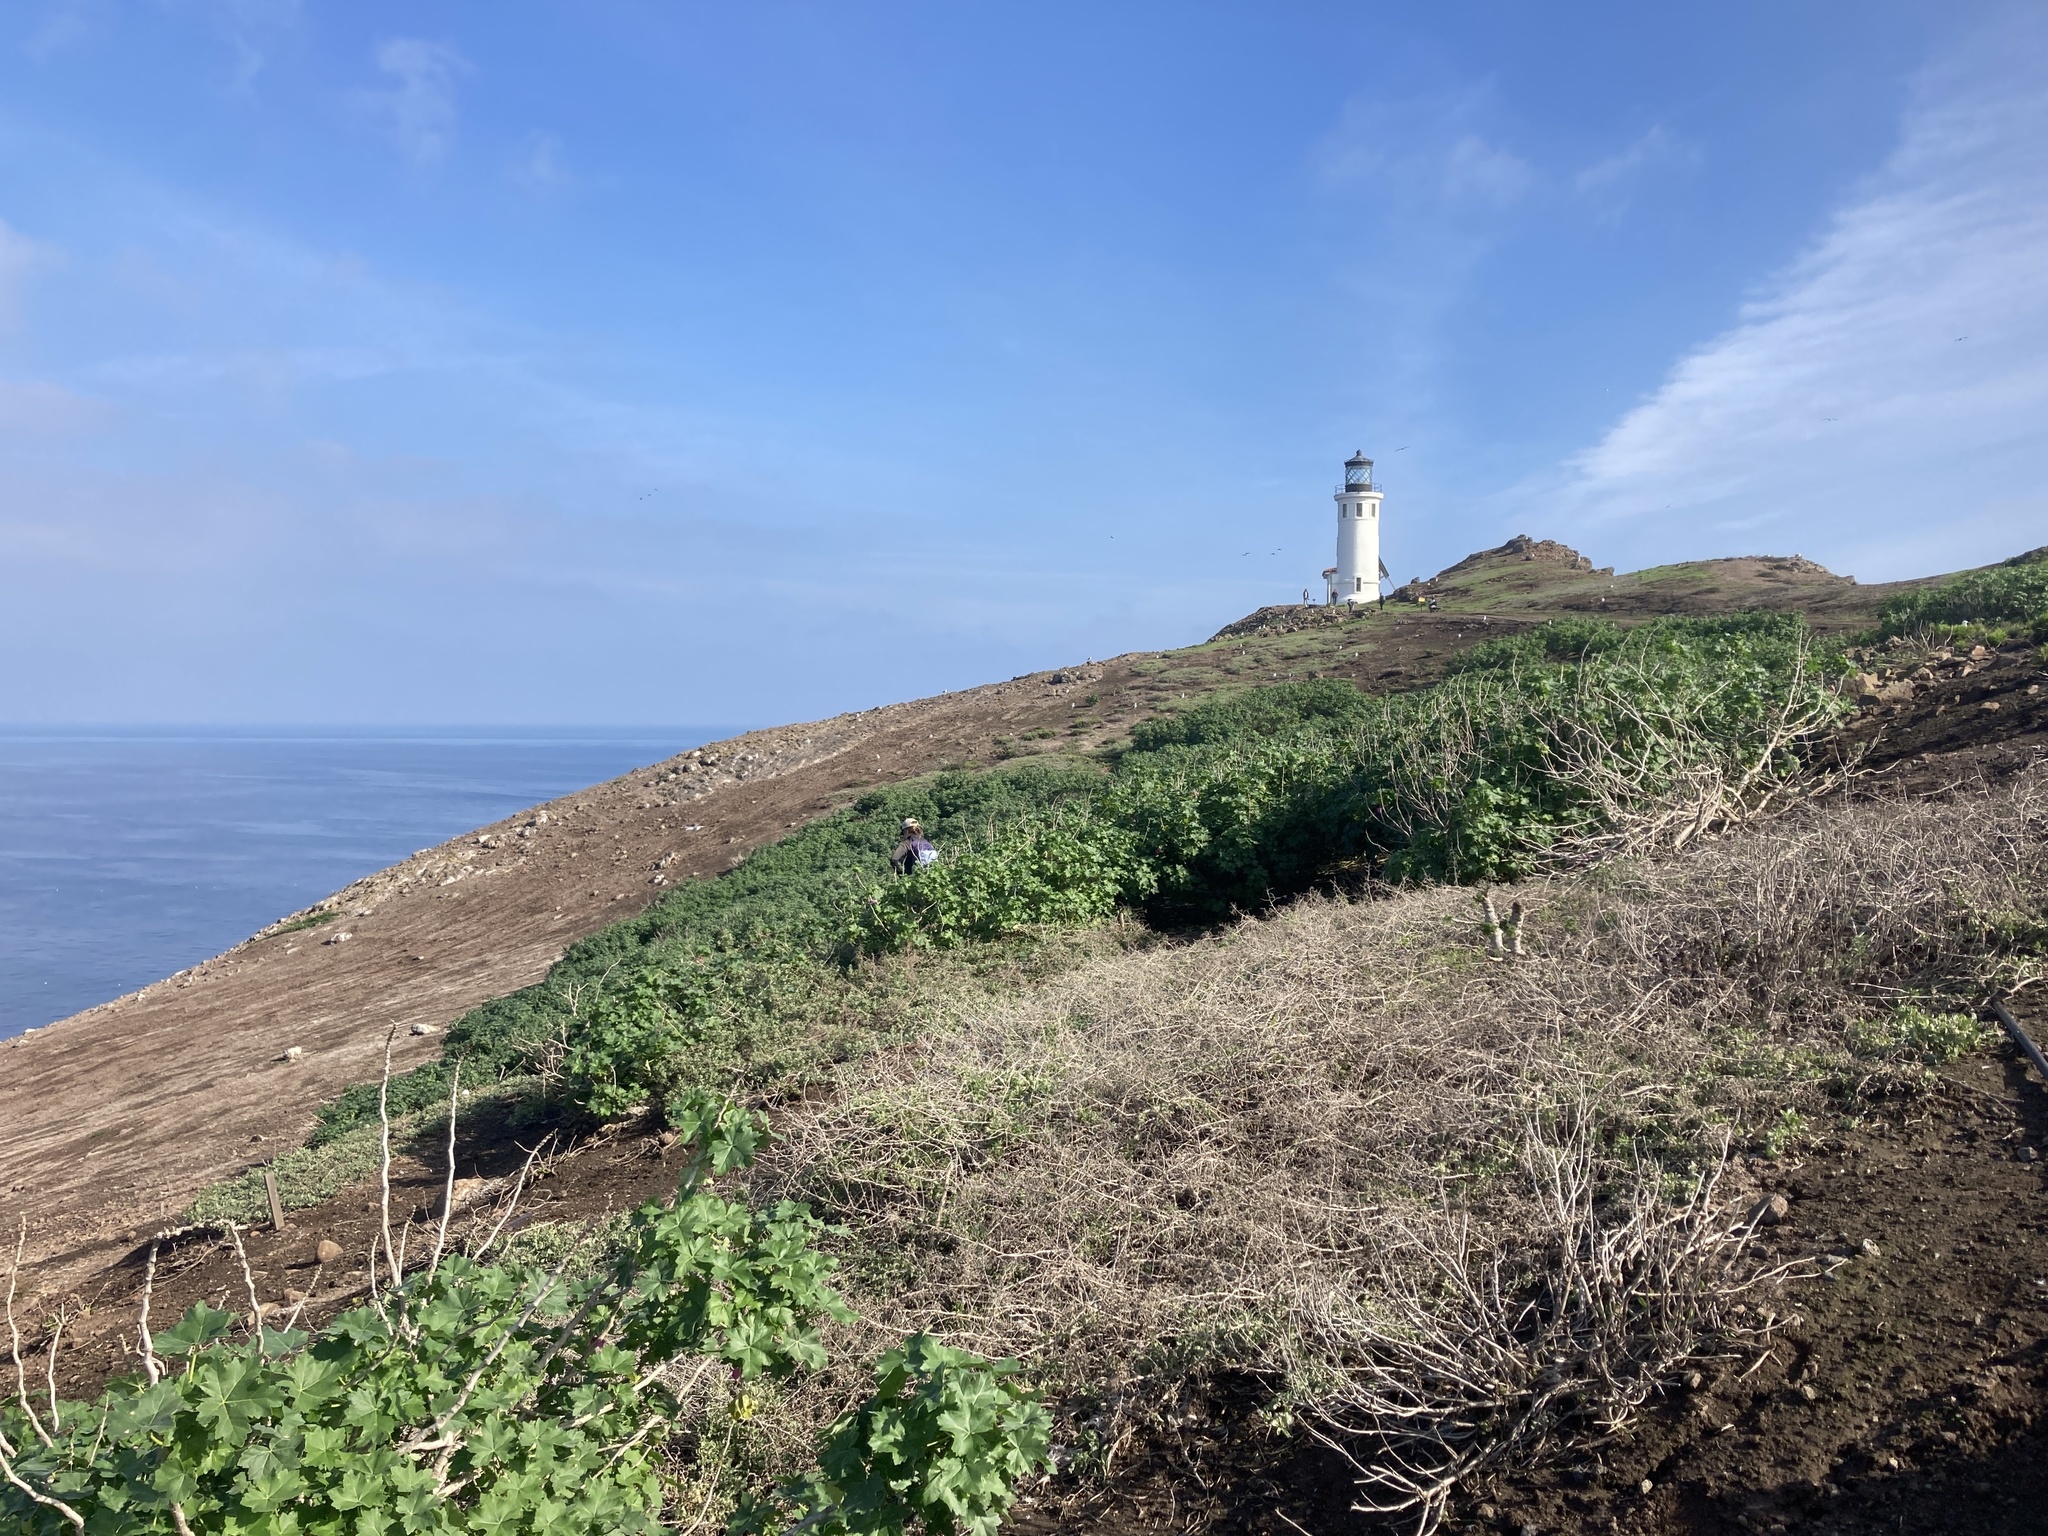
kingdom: Plantae
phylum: Tracheophyta
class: Magnoliopsida
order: Malvales
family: Malvaceae
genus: Malva
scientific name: Malva assurgentiflora
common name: Island mallow
